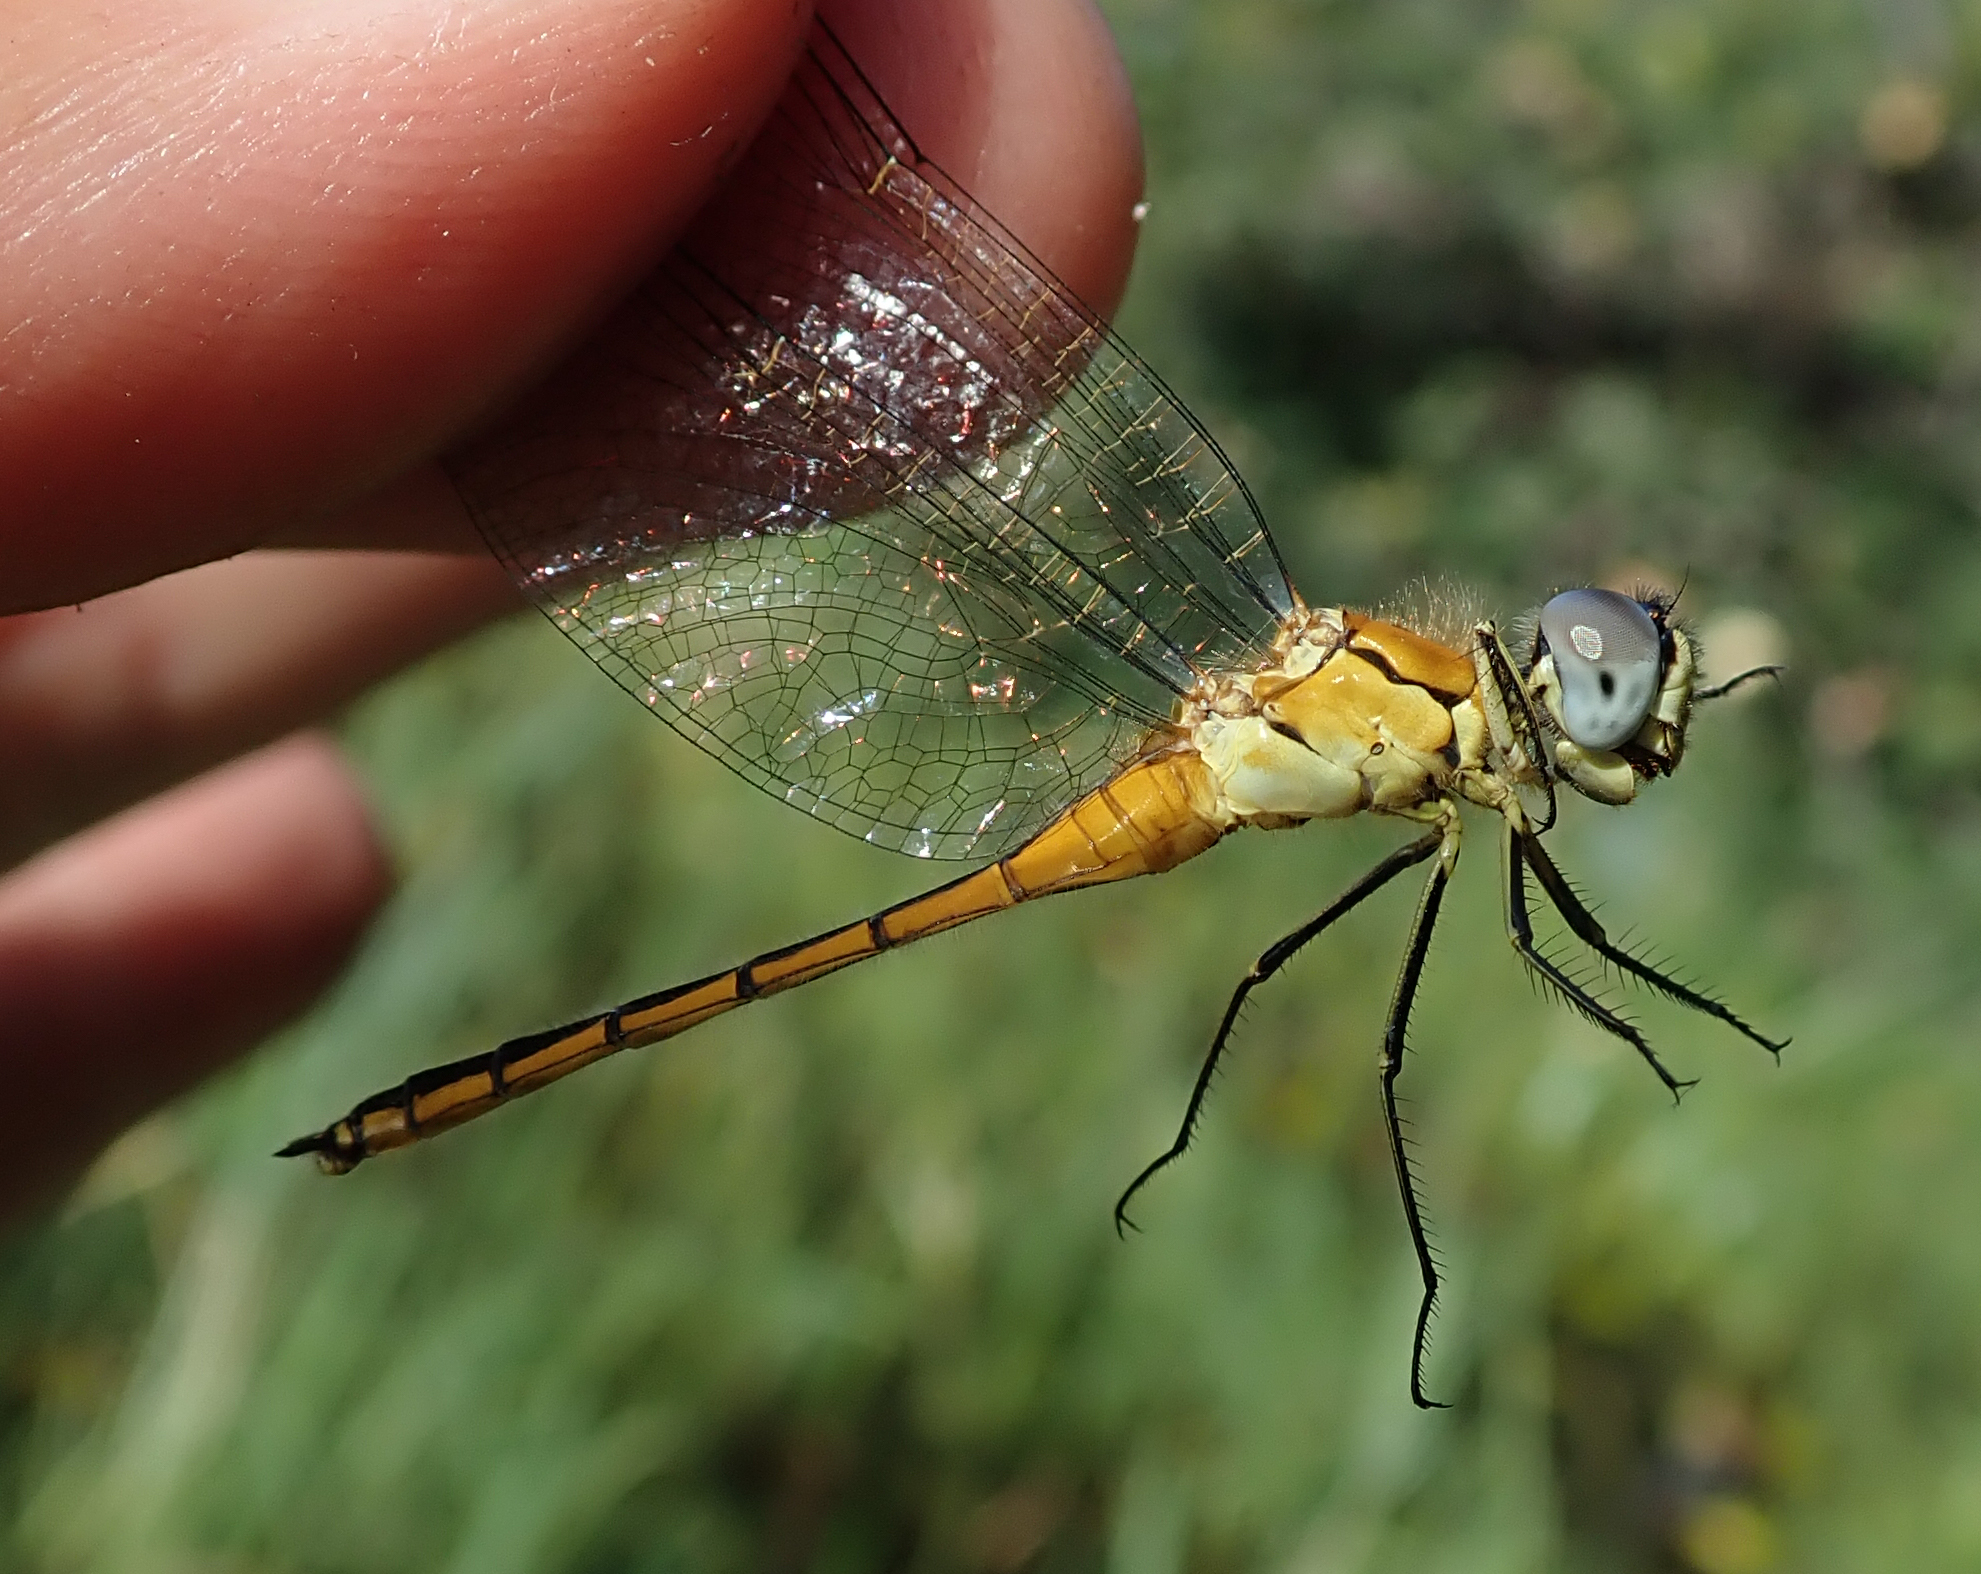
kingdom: Animalia
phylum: Arthropoda
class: Insecta
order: Odonata
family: Libellulidae
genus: Aethiothemis
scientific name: Aethiothemis solitaria
